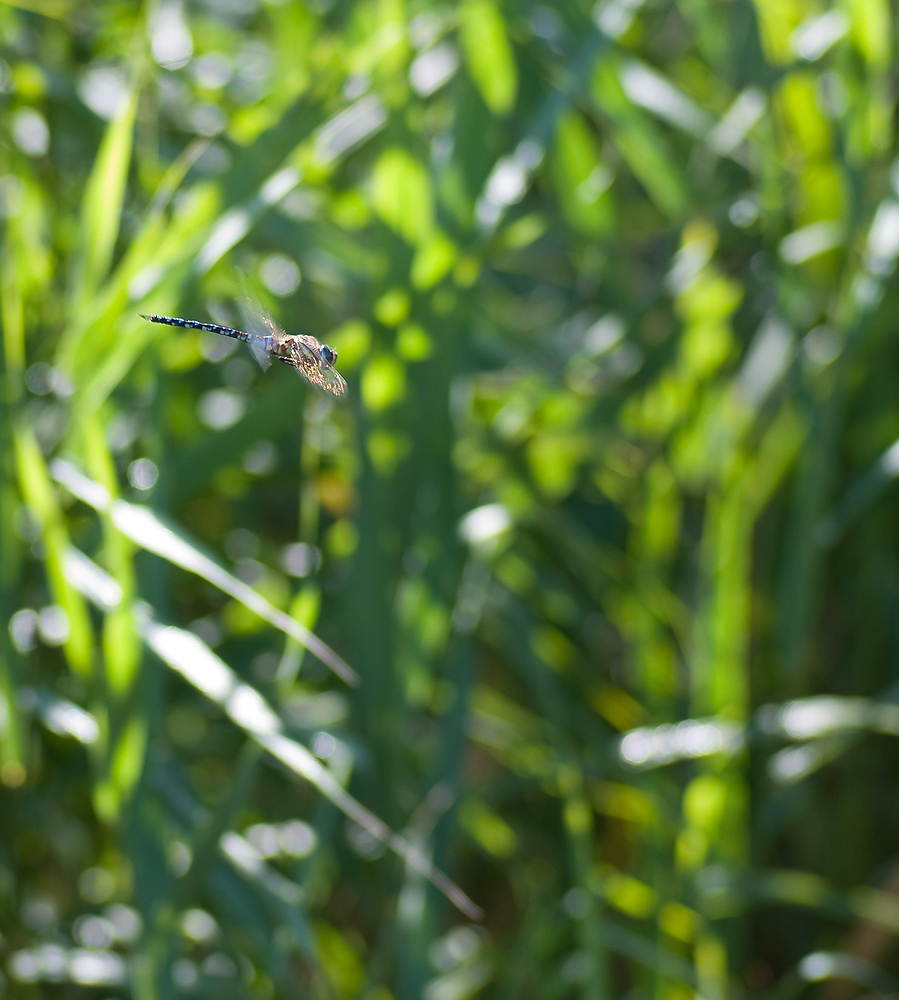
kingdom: Animalia
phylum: Arthropoda
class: Insecta
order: Odonata
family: Aeshnidae
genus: Aeshna
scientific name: Aeshna mixta
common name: Migrant hawker
